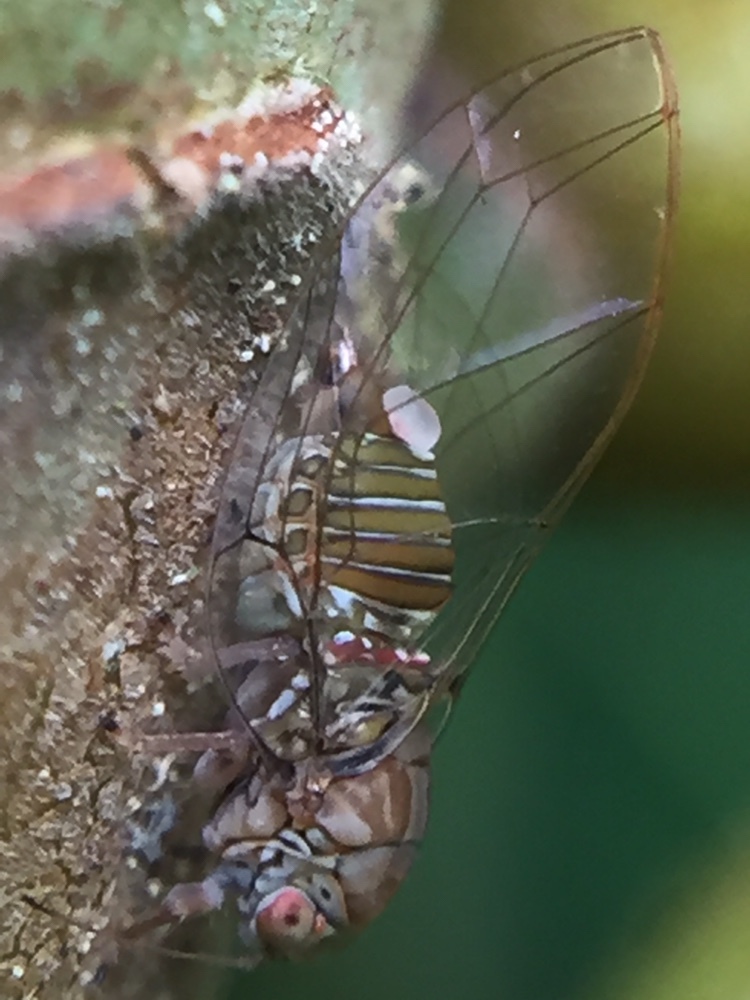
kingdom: Animalia
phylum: Arthropoda
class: Insecta
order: Hemiptera
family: Homotomidae
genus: Mycopsylla
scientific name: Mycopsylla obliqua
